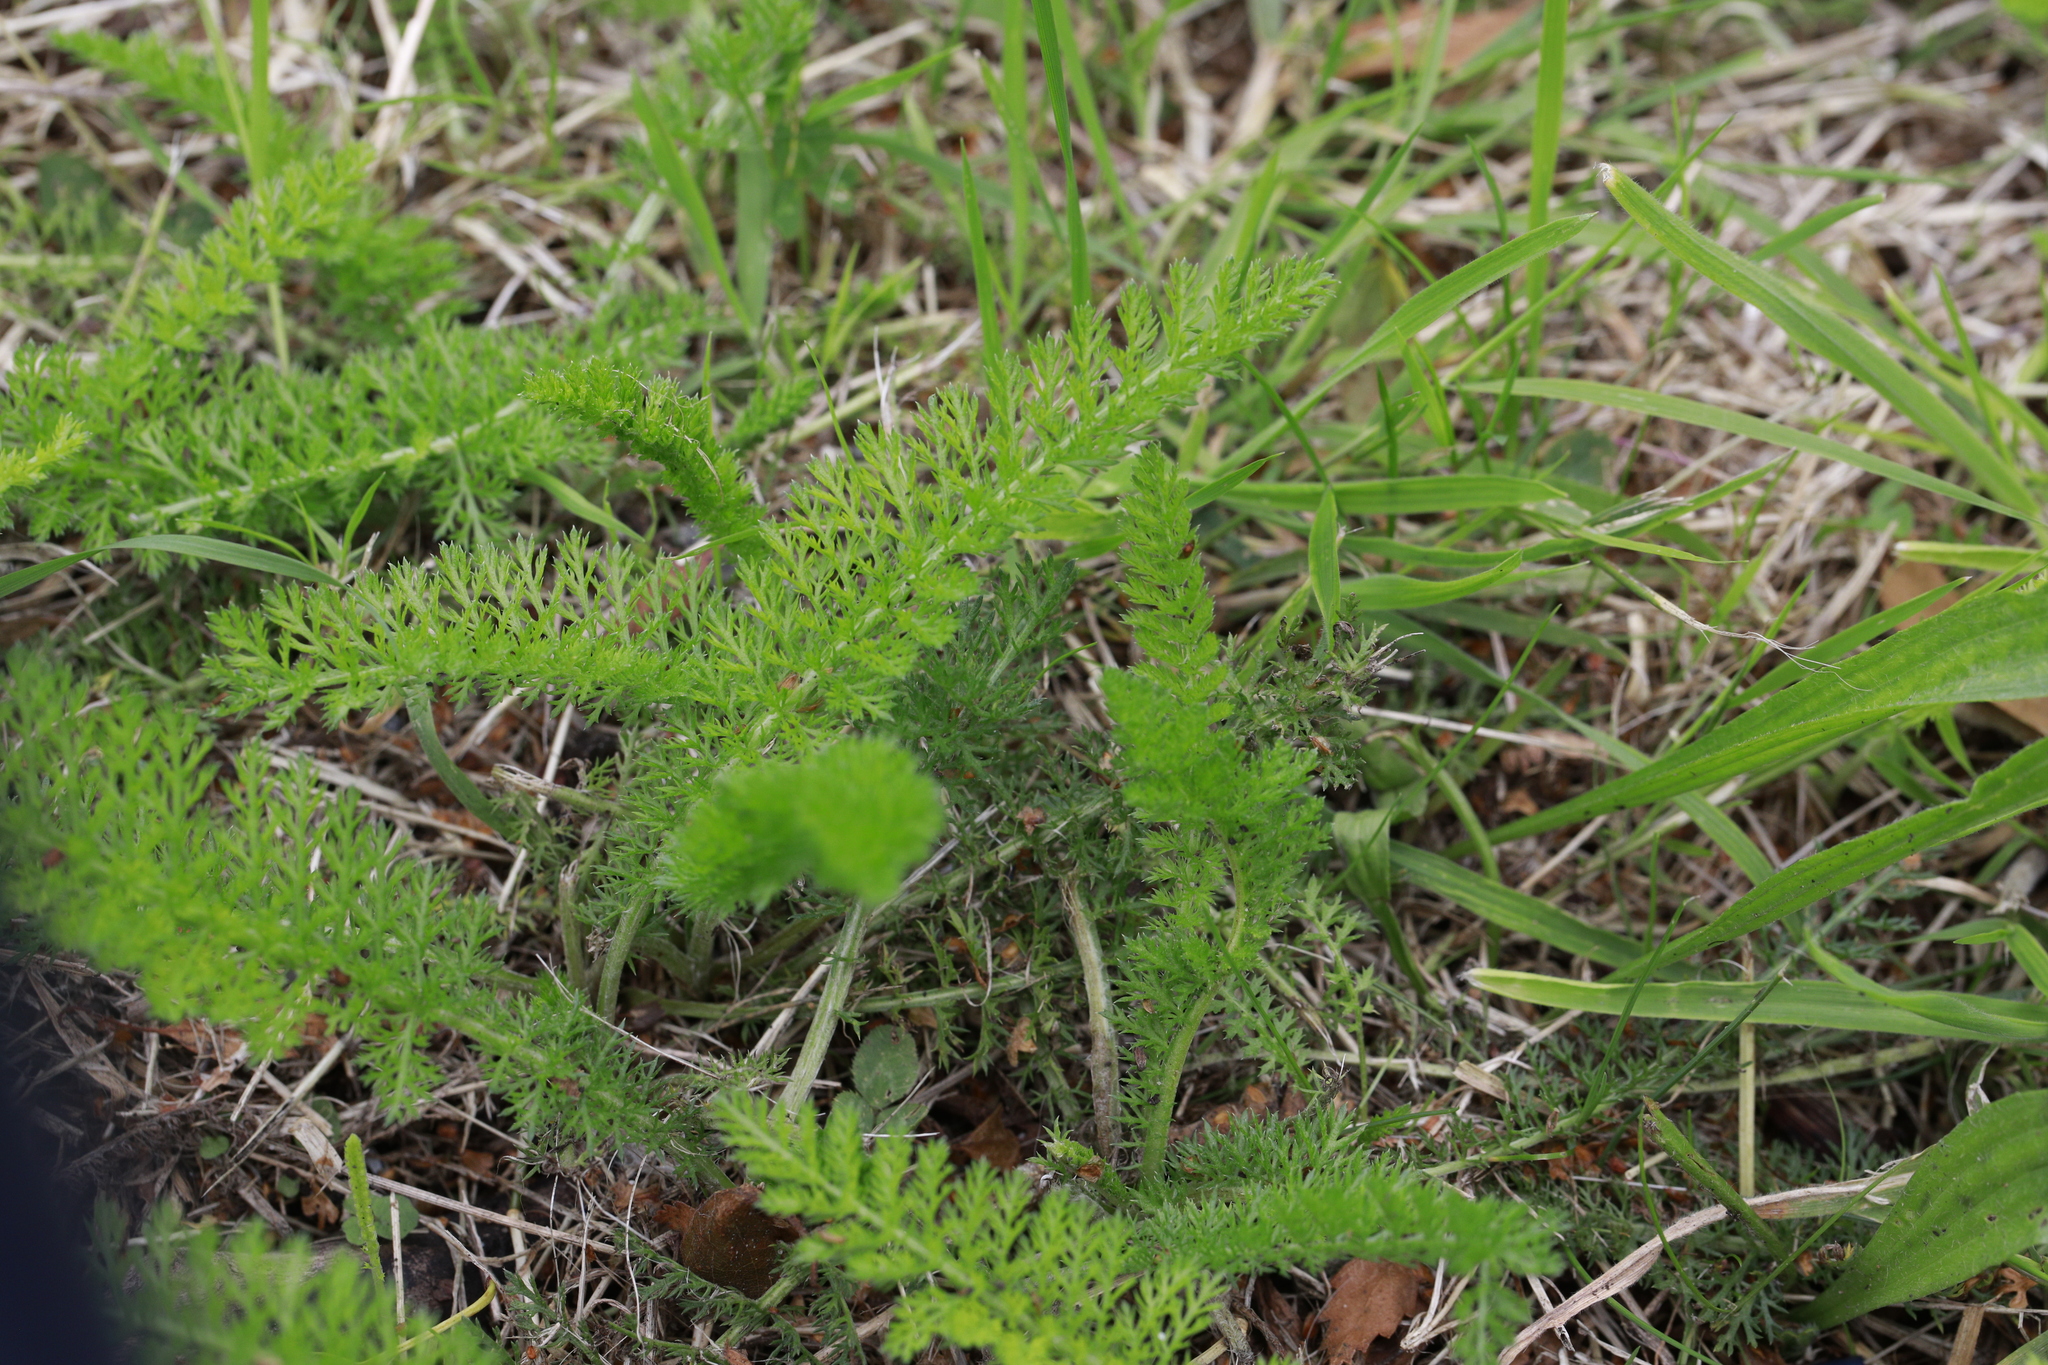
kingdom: Plantae
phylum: Tracheophyta
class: Magnoliopsida
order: Asterales
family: Asteraceae
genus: Achillea
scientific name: Achillea millefolium
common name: Yarrow
